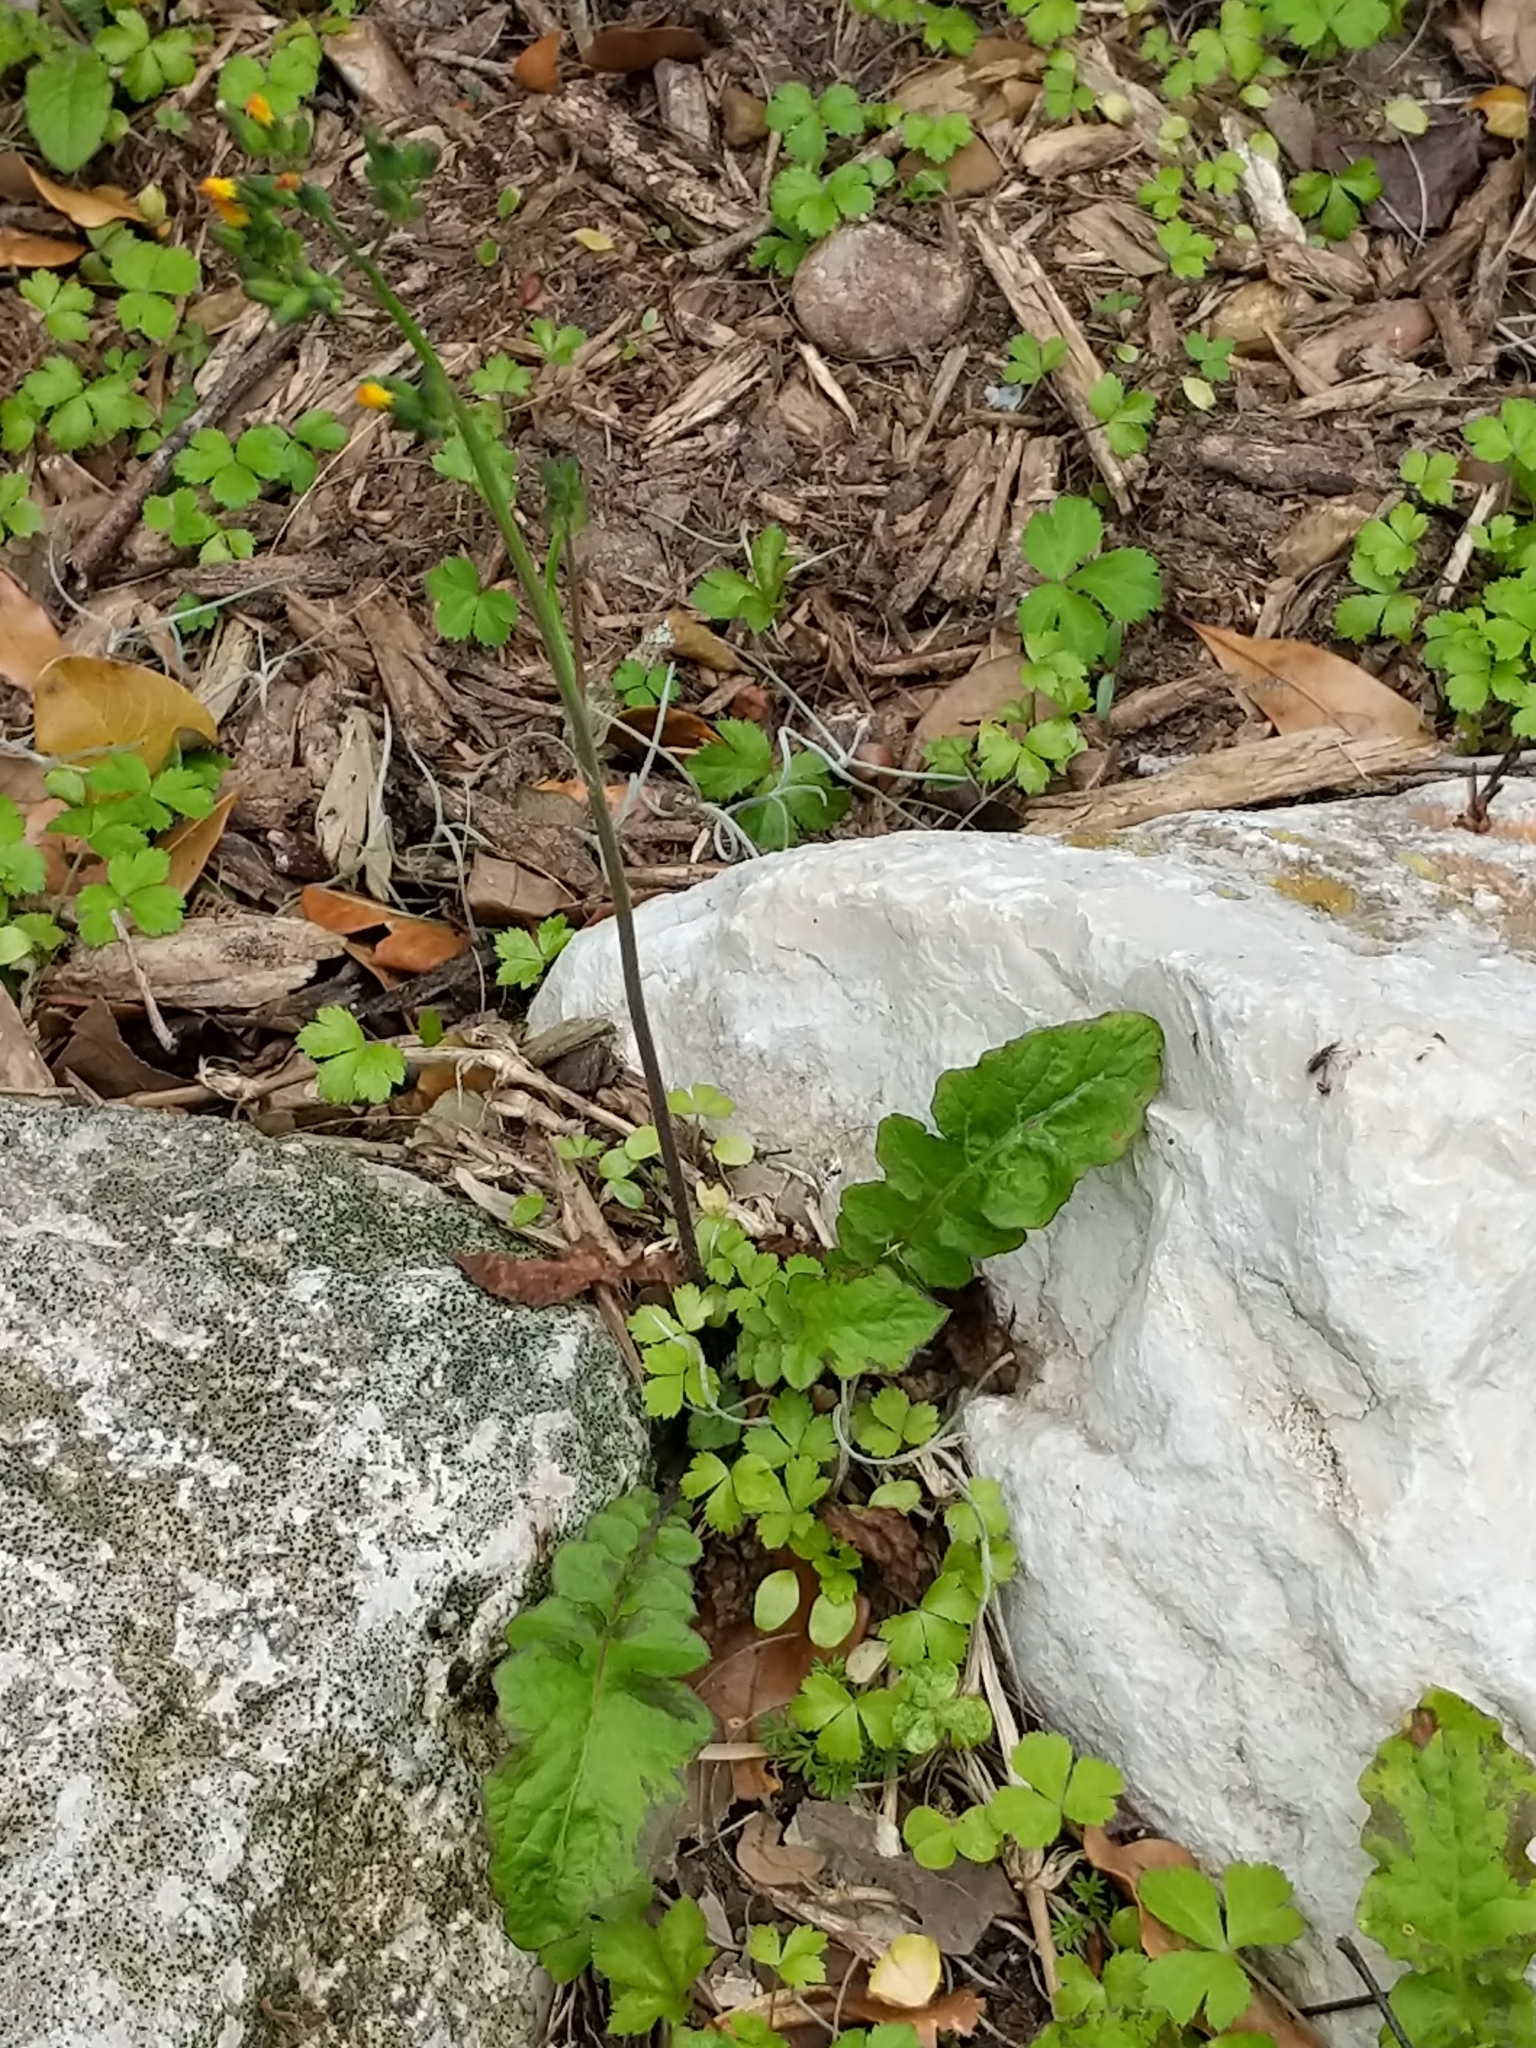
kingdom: Plantae
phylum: Tracheophyta
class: Magnoliopsida
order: Asterales
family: Asteraceae
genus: Youngia
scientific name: Youngia japonica
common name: Oriental false hawksbeard
